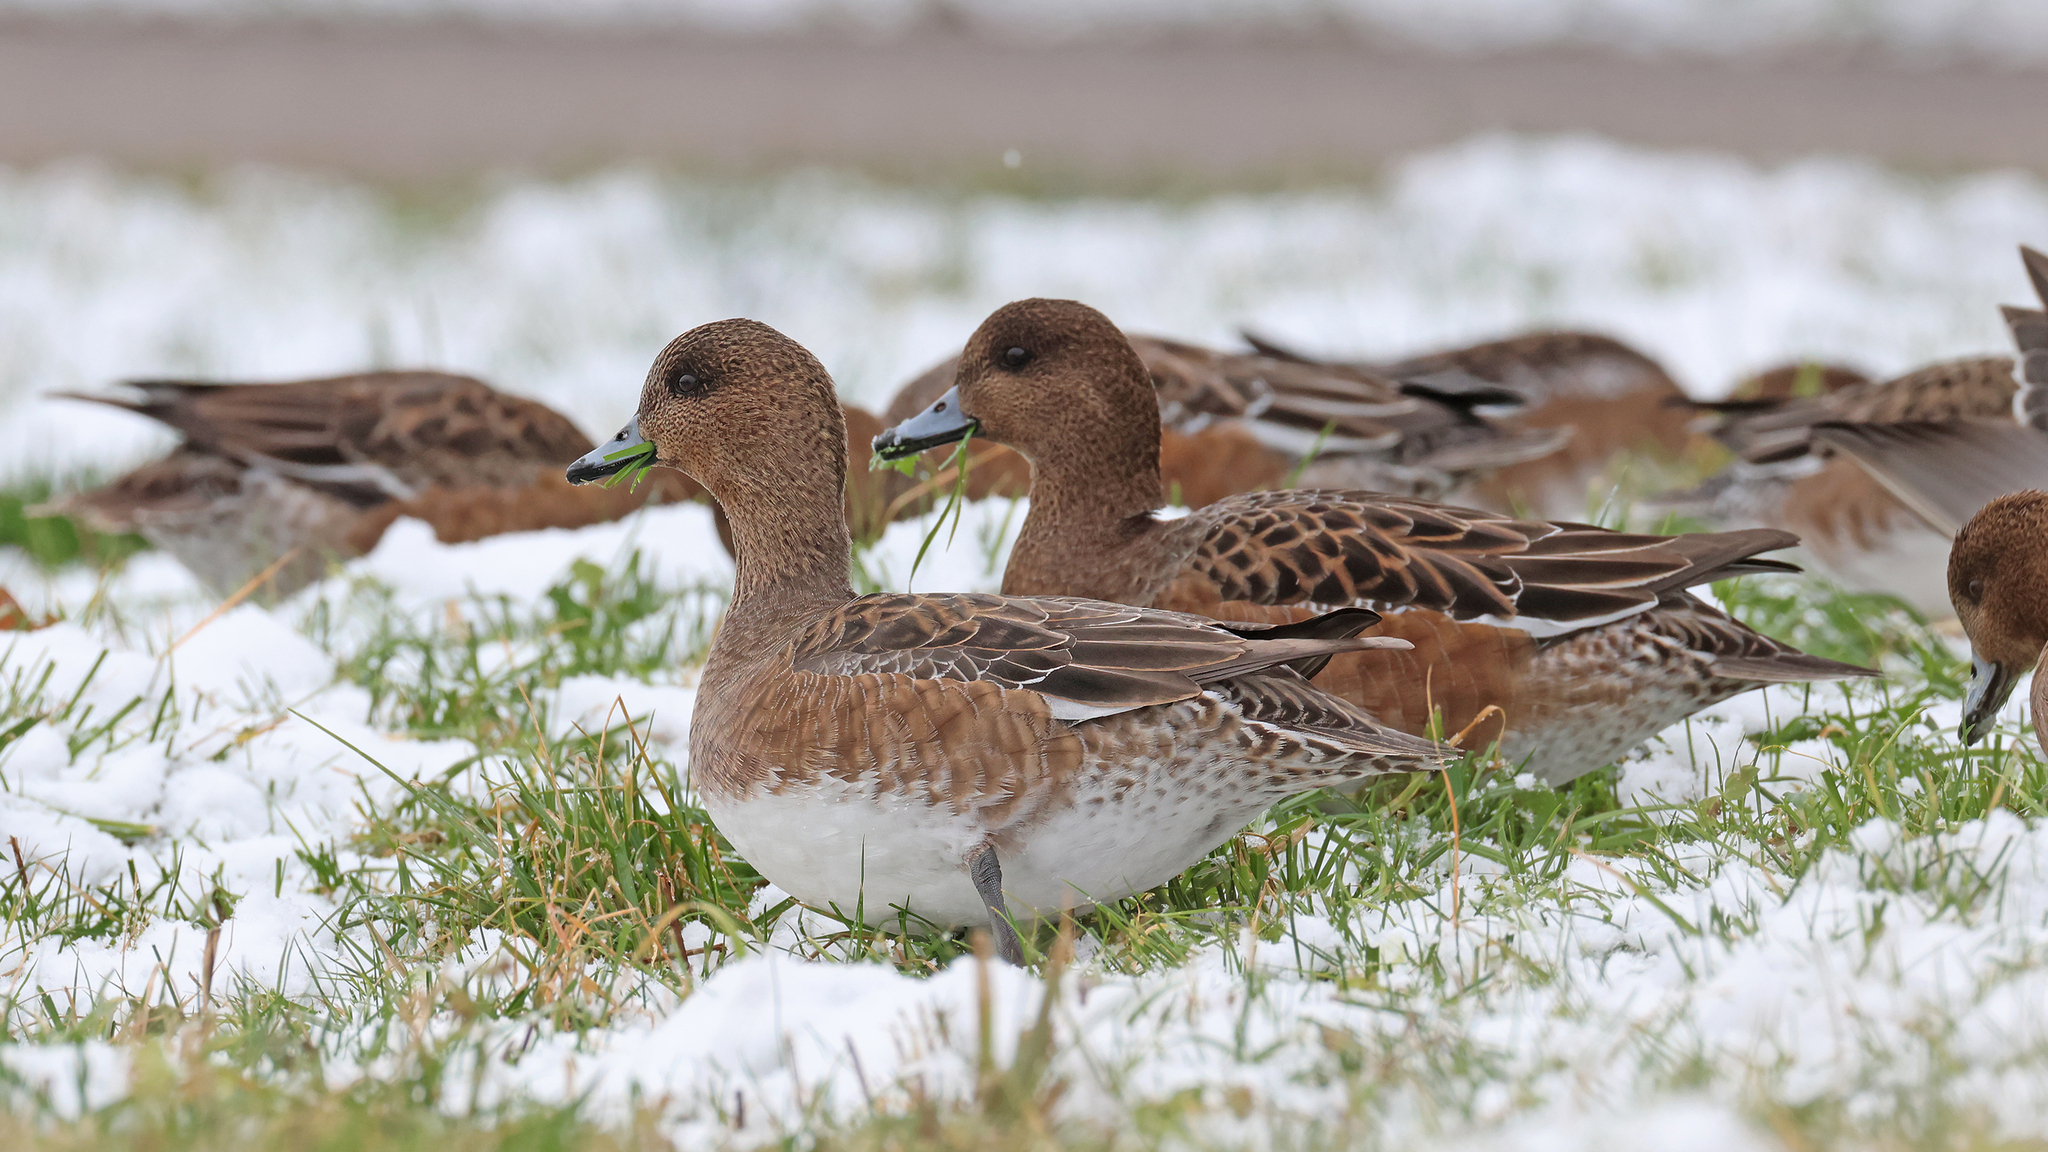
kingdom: Animalia
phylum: Chordata
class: Aves
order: Anseriformes
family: Anatidae
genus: Mareca
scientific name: Mareca penelope
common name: Eurasian wigeon
